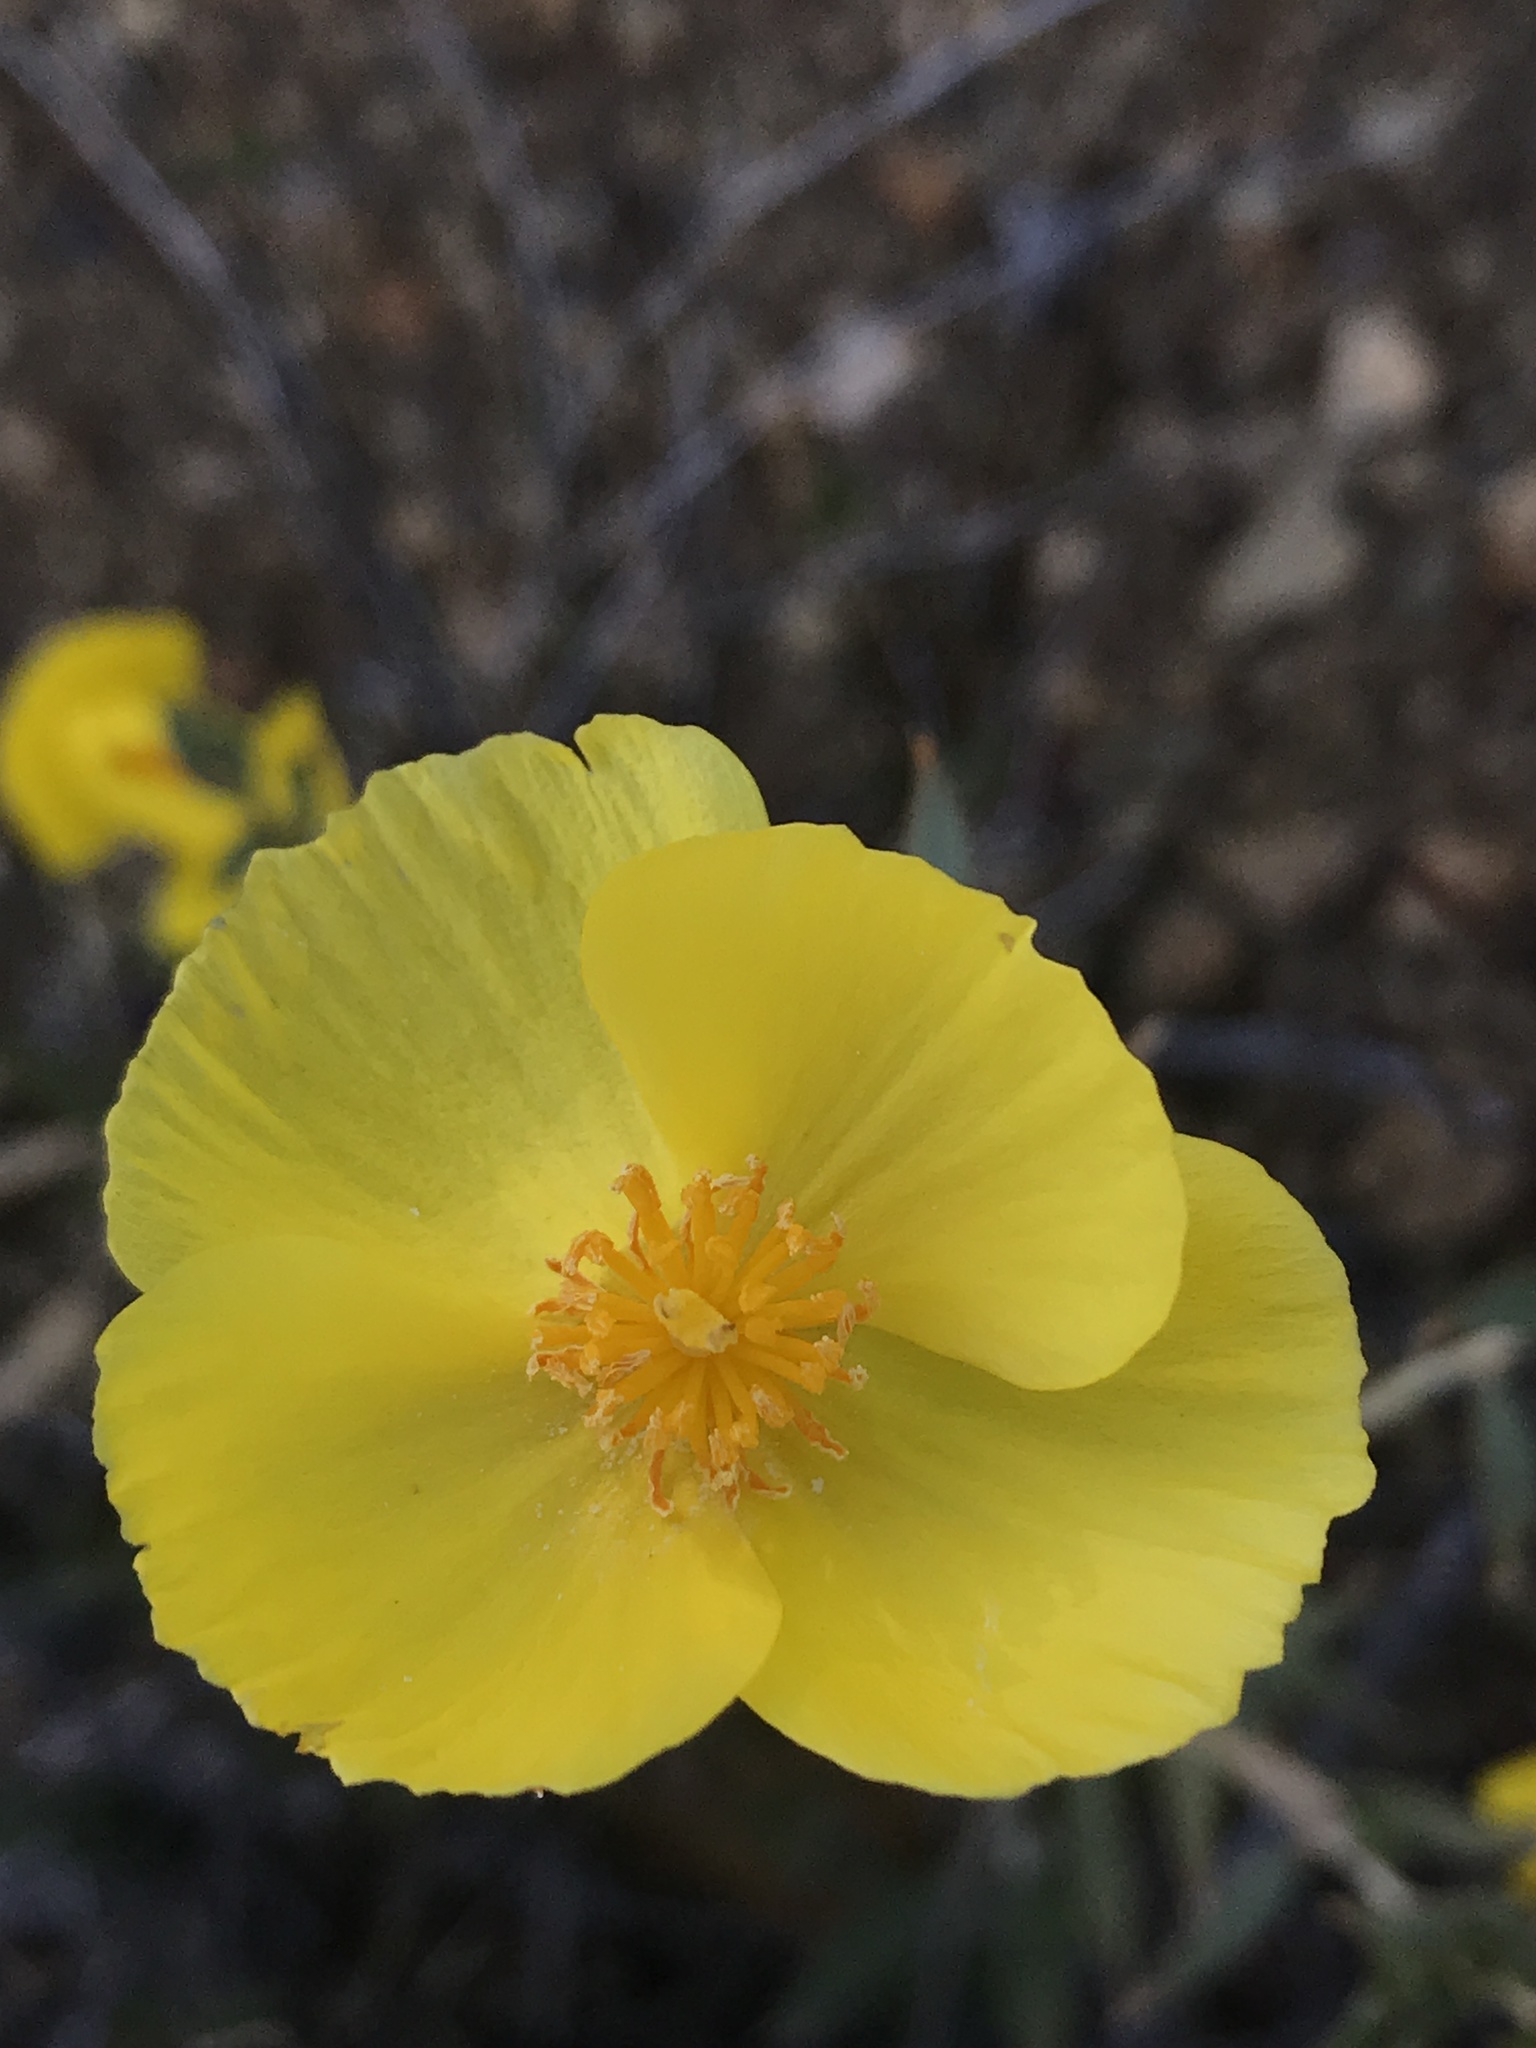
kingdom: Plantae
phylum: Tracheophyta
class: Magnoliopsida
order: Ranunculales
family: Papaveraceae
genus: Dendromecon
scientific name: Dendromecon rigida
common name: Tree poppy
